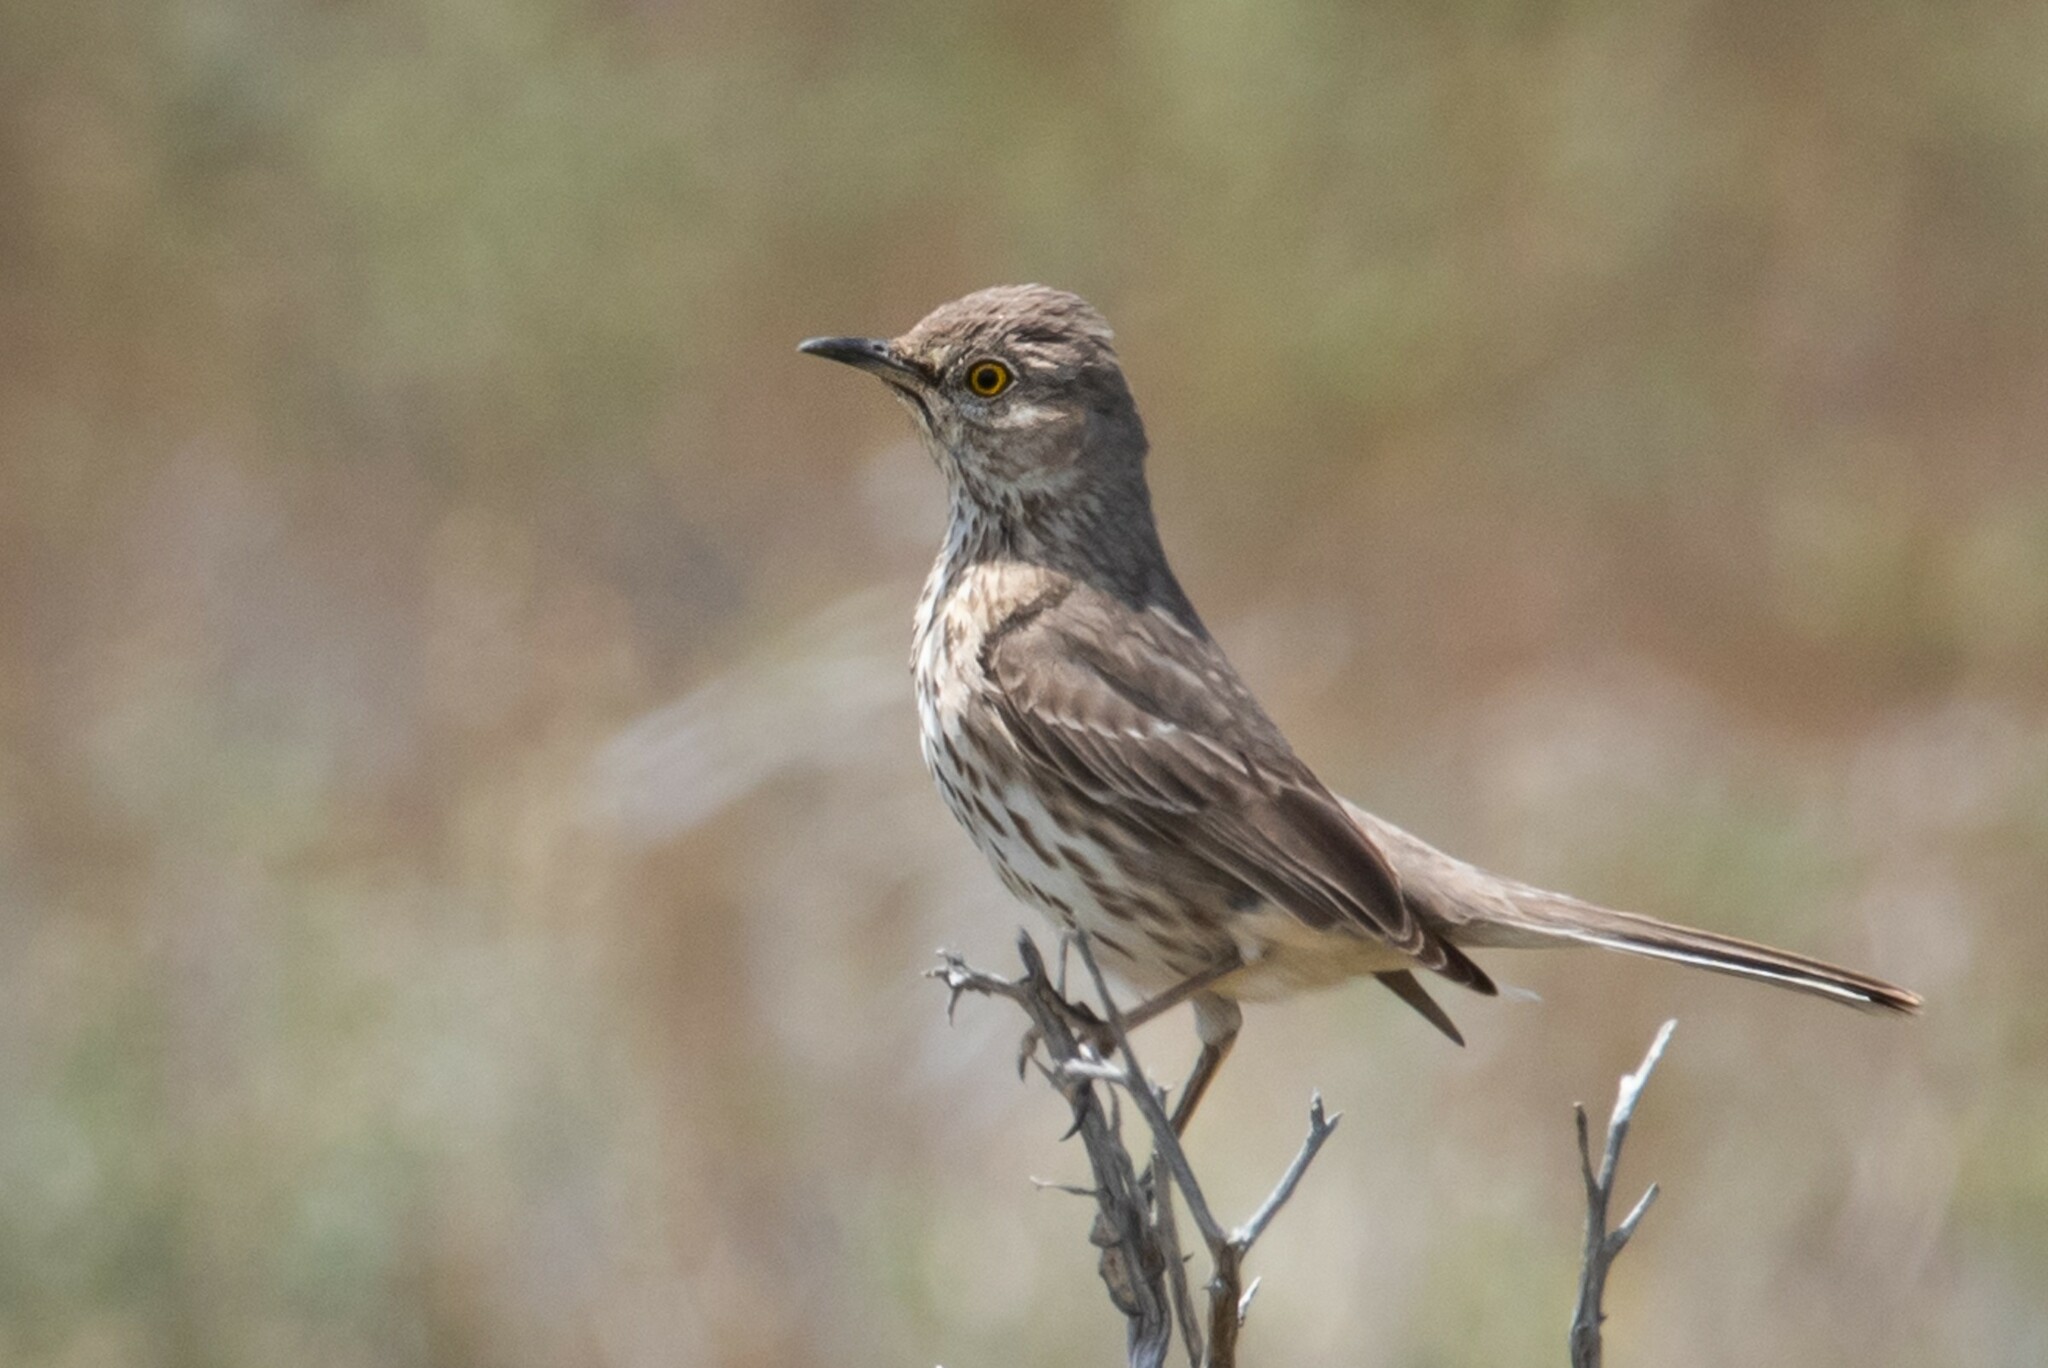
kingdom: Animalia
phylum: Chordata
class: Aves
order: Passeriformes
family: Mimidae
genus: Oreoscoptes
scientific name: Oreoscoptes montanus
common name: Sage thrasher
